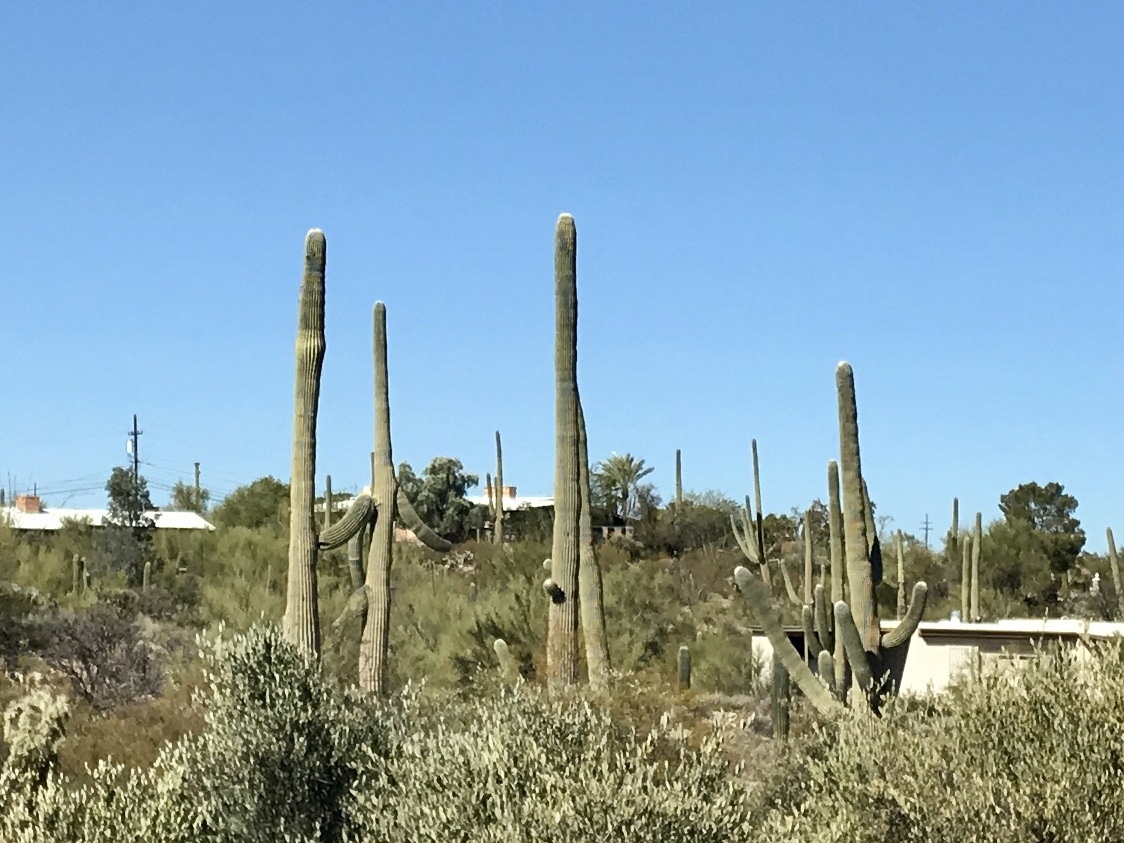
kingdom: Plantae
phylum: Tracheophyta
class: Magnoliopsida
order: Caryophyllales
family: Cactaceae
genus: Carnegiea
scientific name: Carnegiea gigantea
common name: Saguaro
